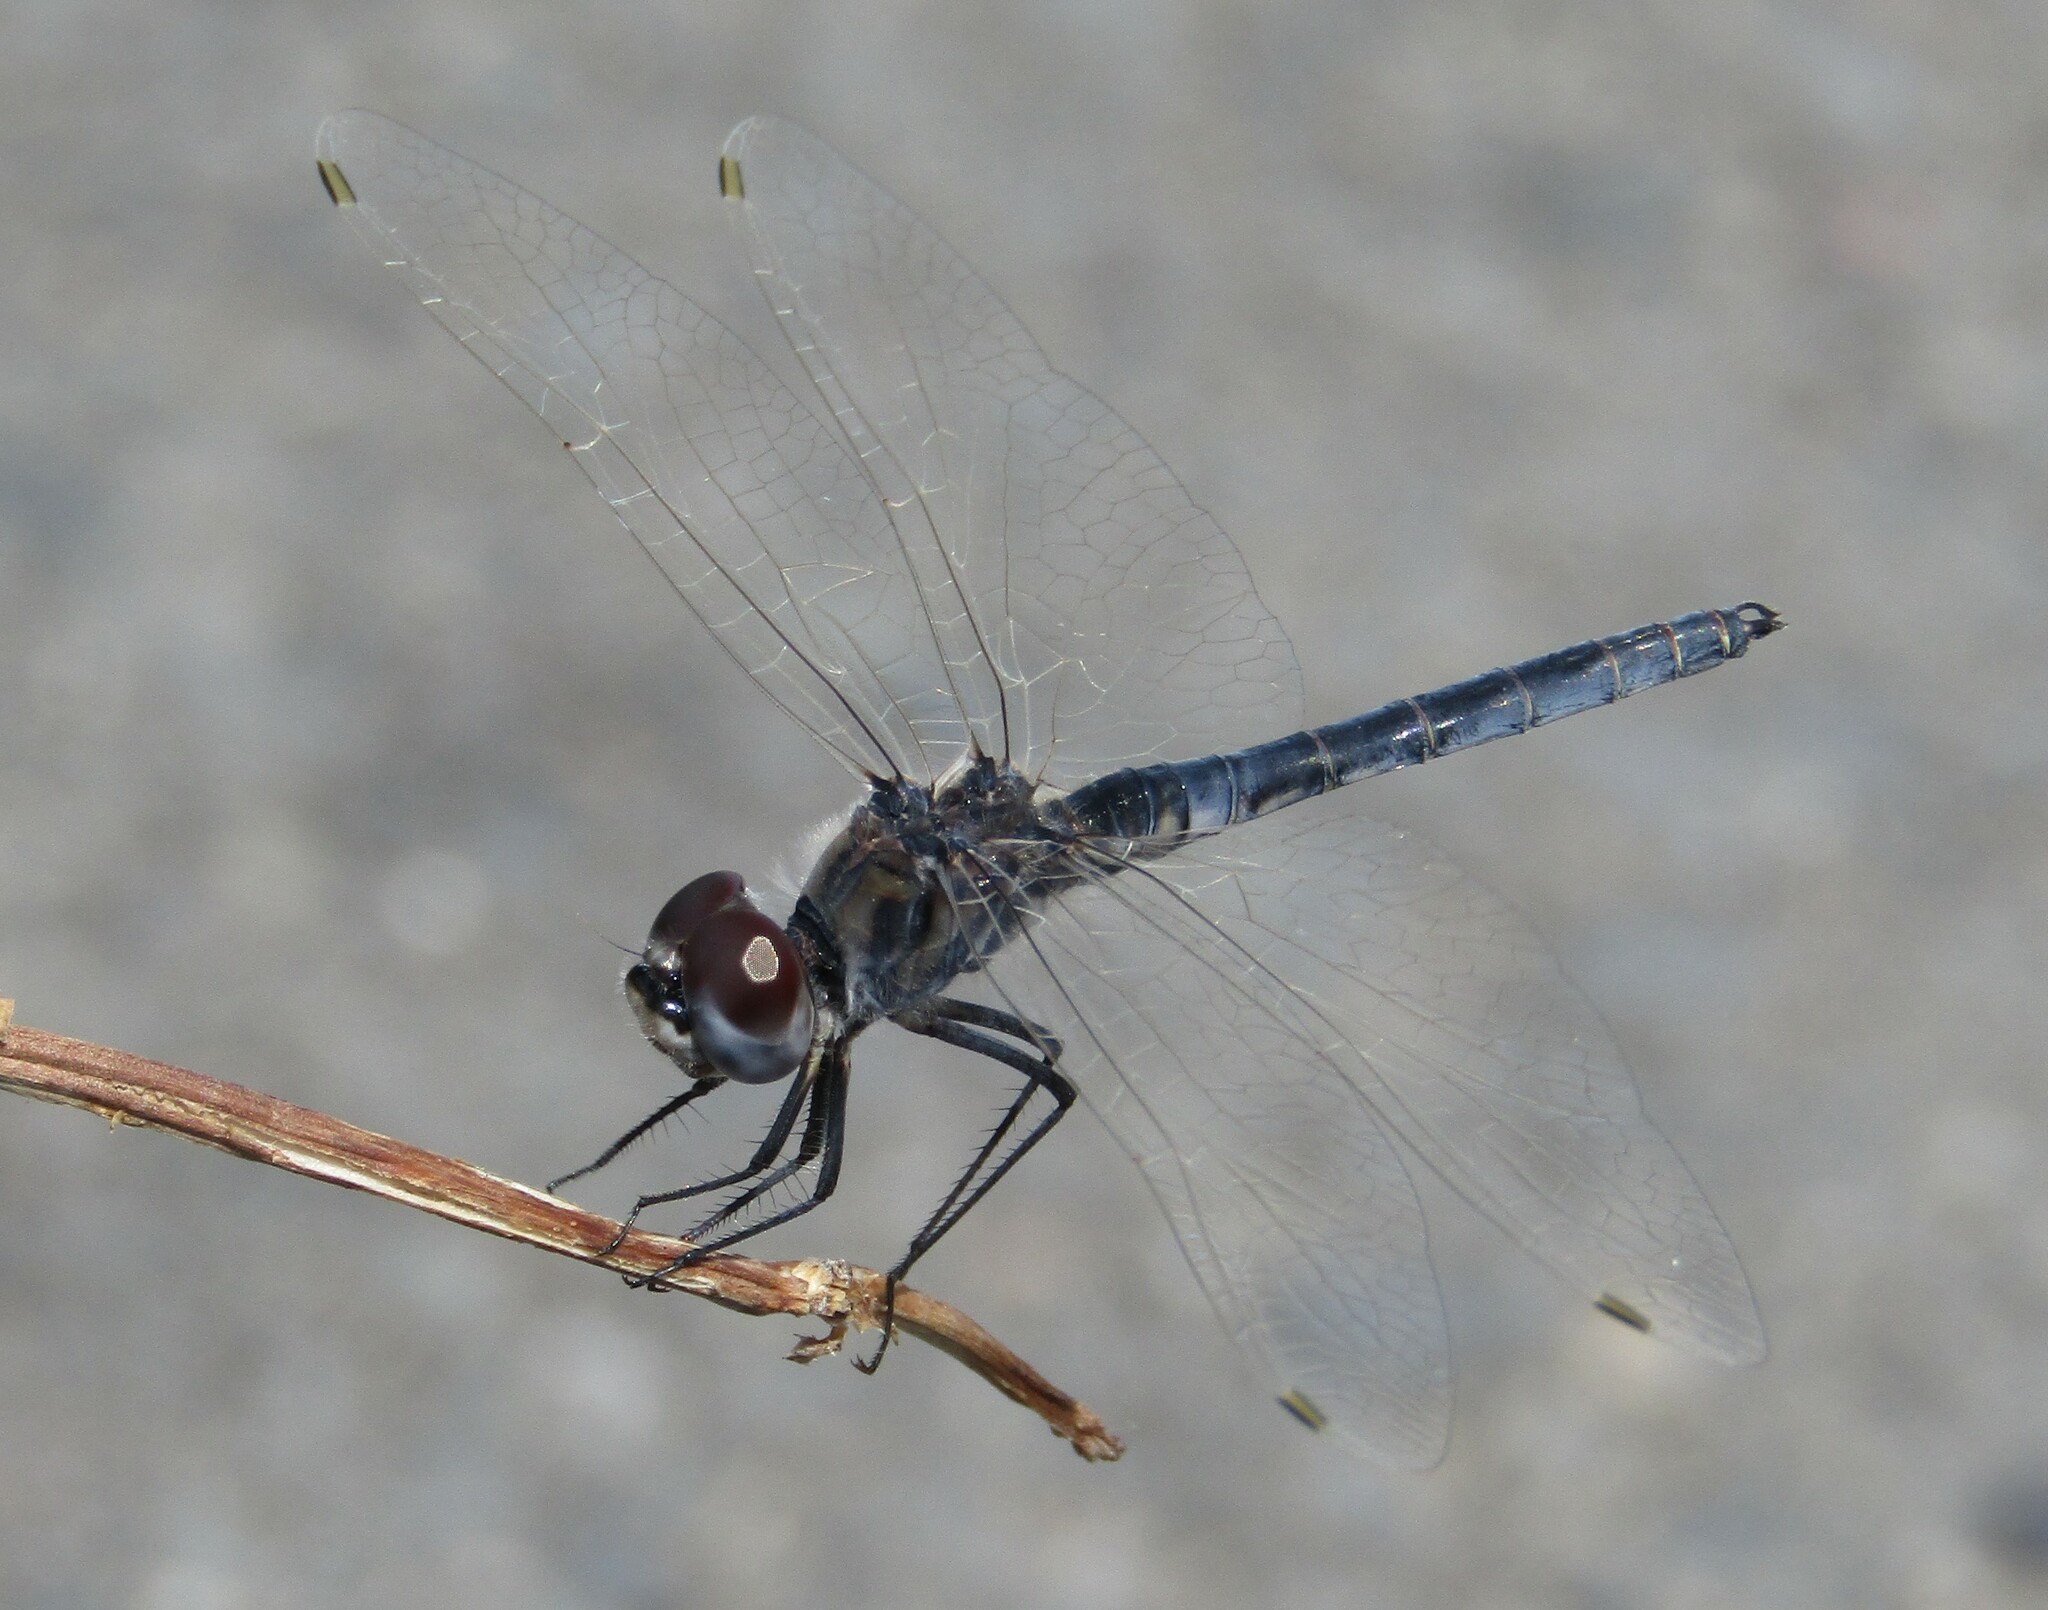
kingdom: Animalia
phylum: Arthropoda
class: Insecta
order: Odonata
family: Libellulidae
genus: Selysiothemis
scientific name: Selysiothemis nigra
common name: Black pennant
